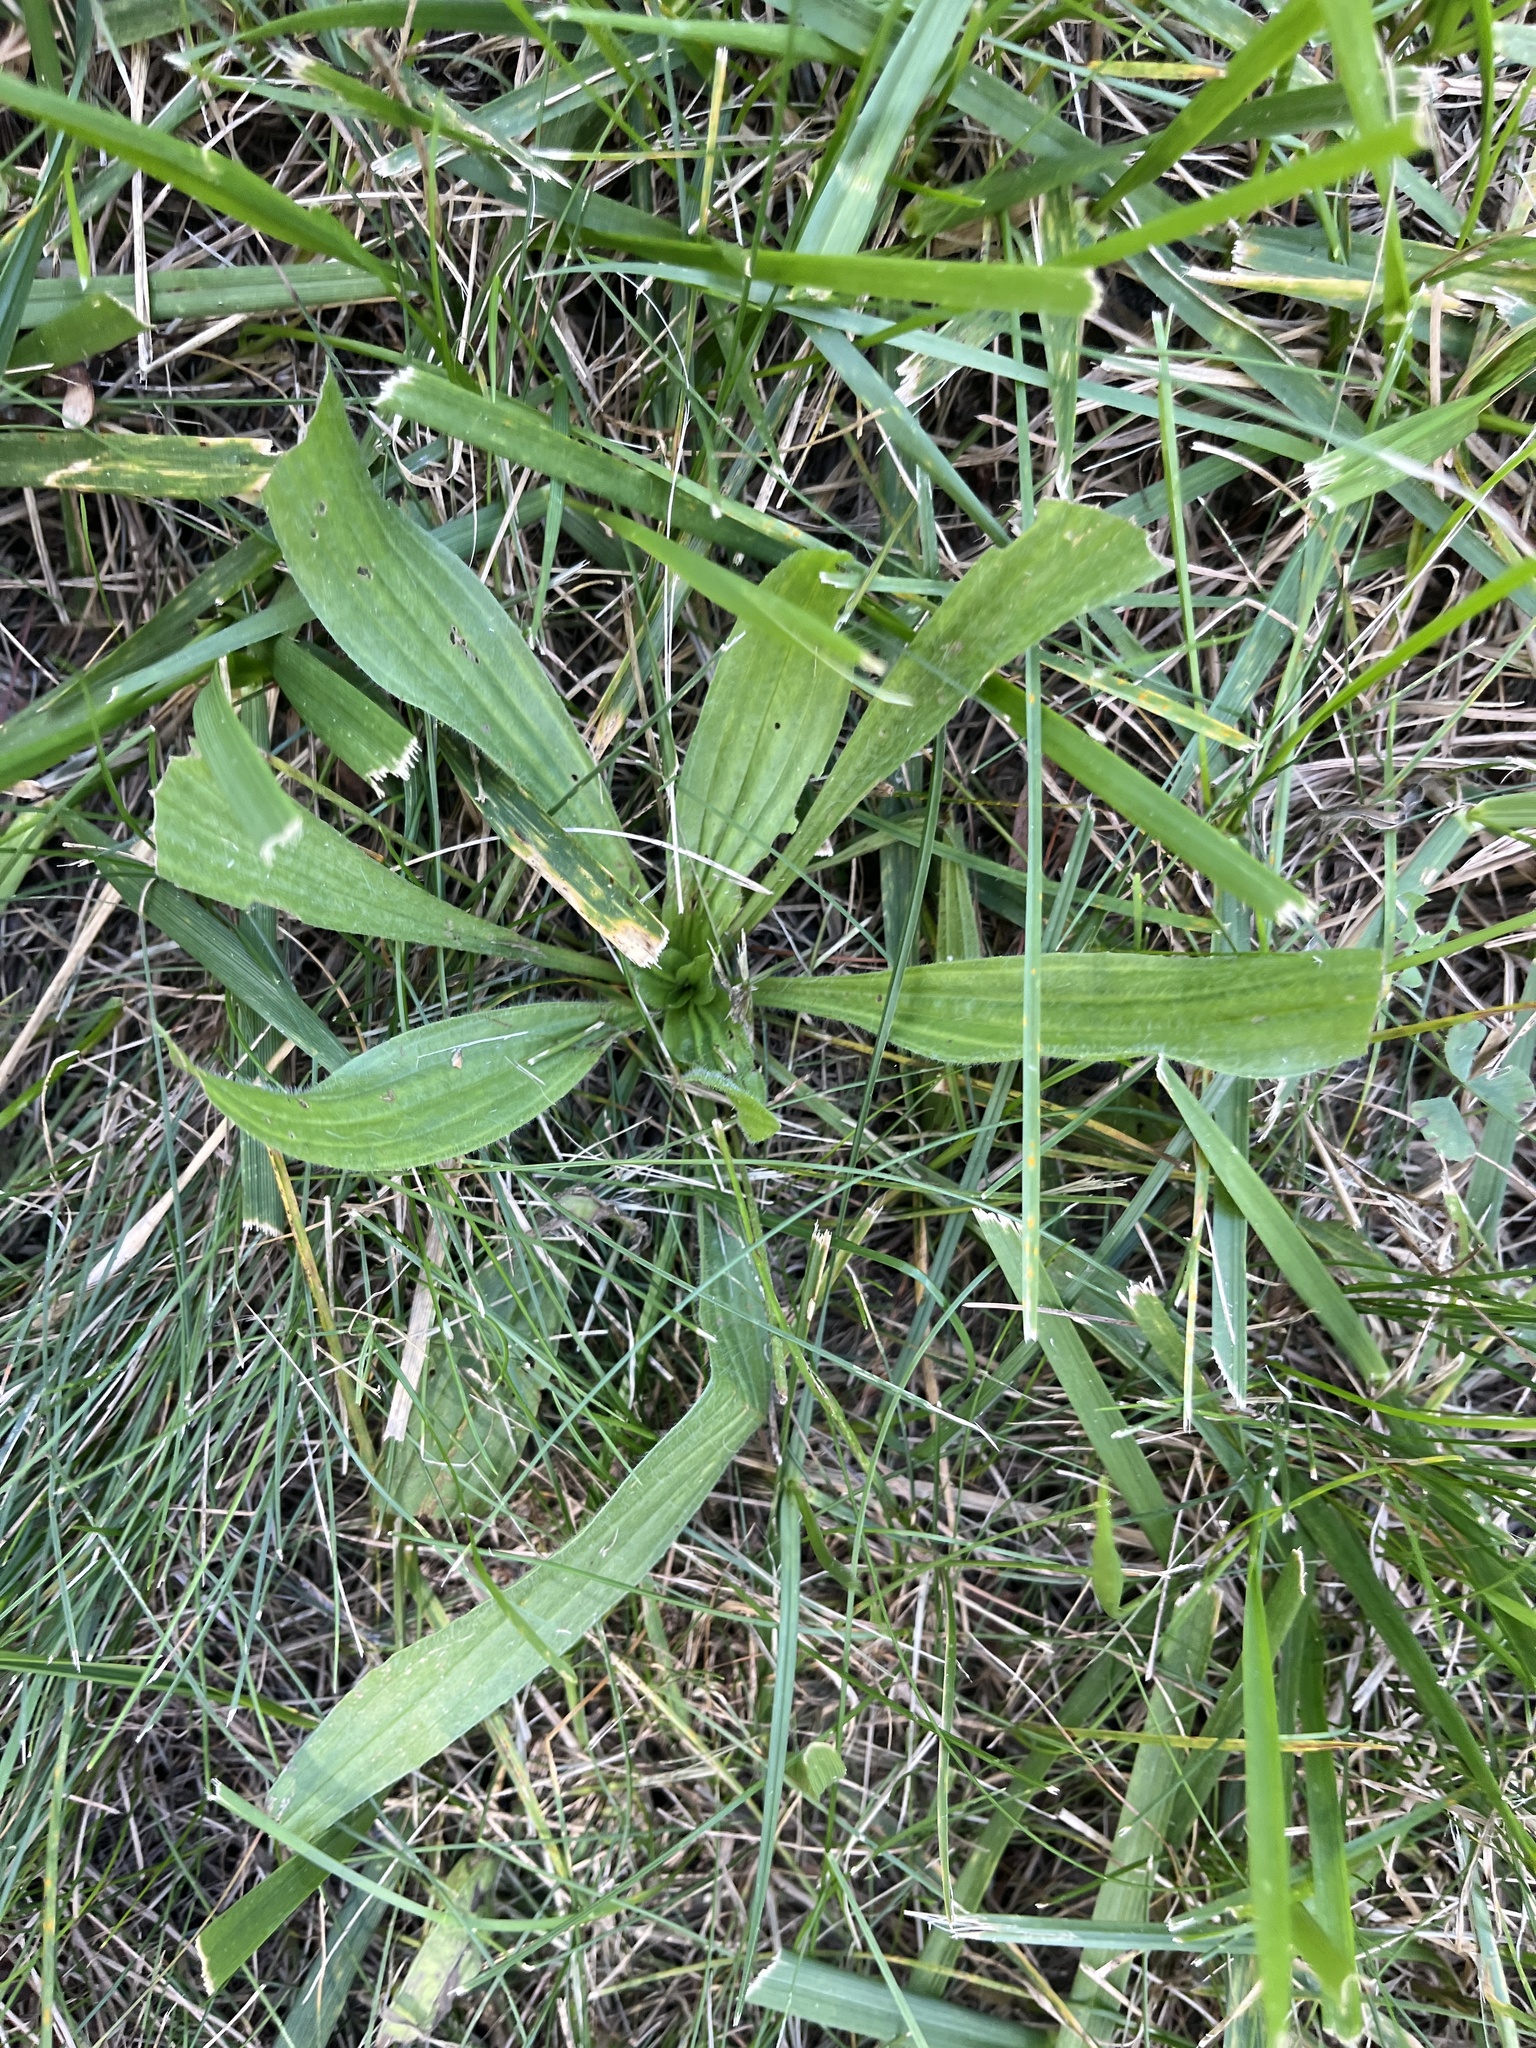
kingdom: Plantae
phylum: Tracheophyta
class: Magnoliopsida
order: Lamiales
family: Plantaginaceae
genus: Plantago
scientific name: Plantago lanceolata
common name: Ribwort plantain
